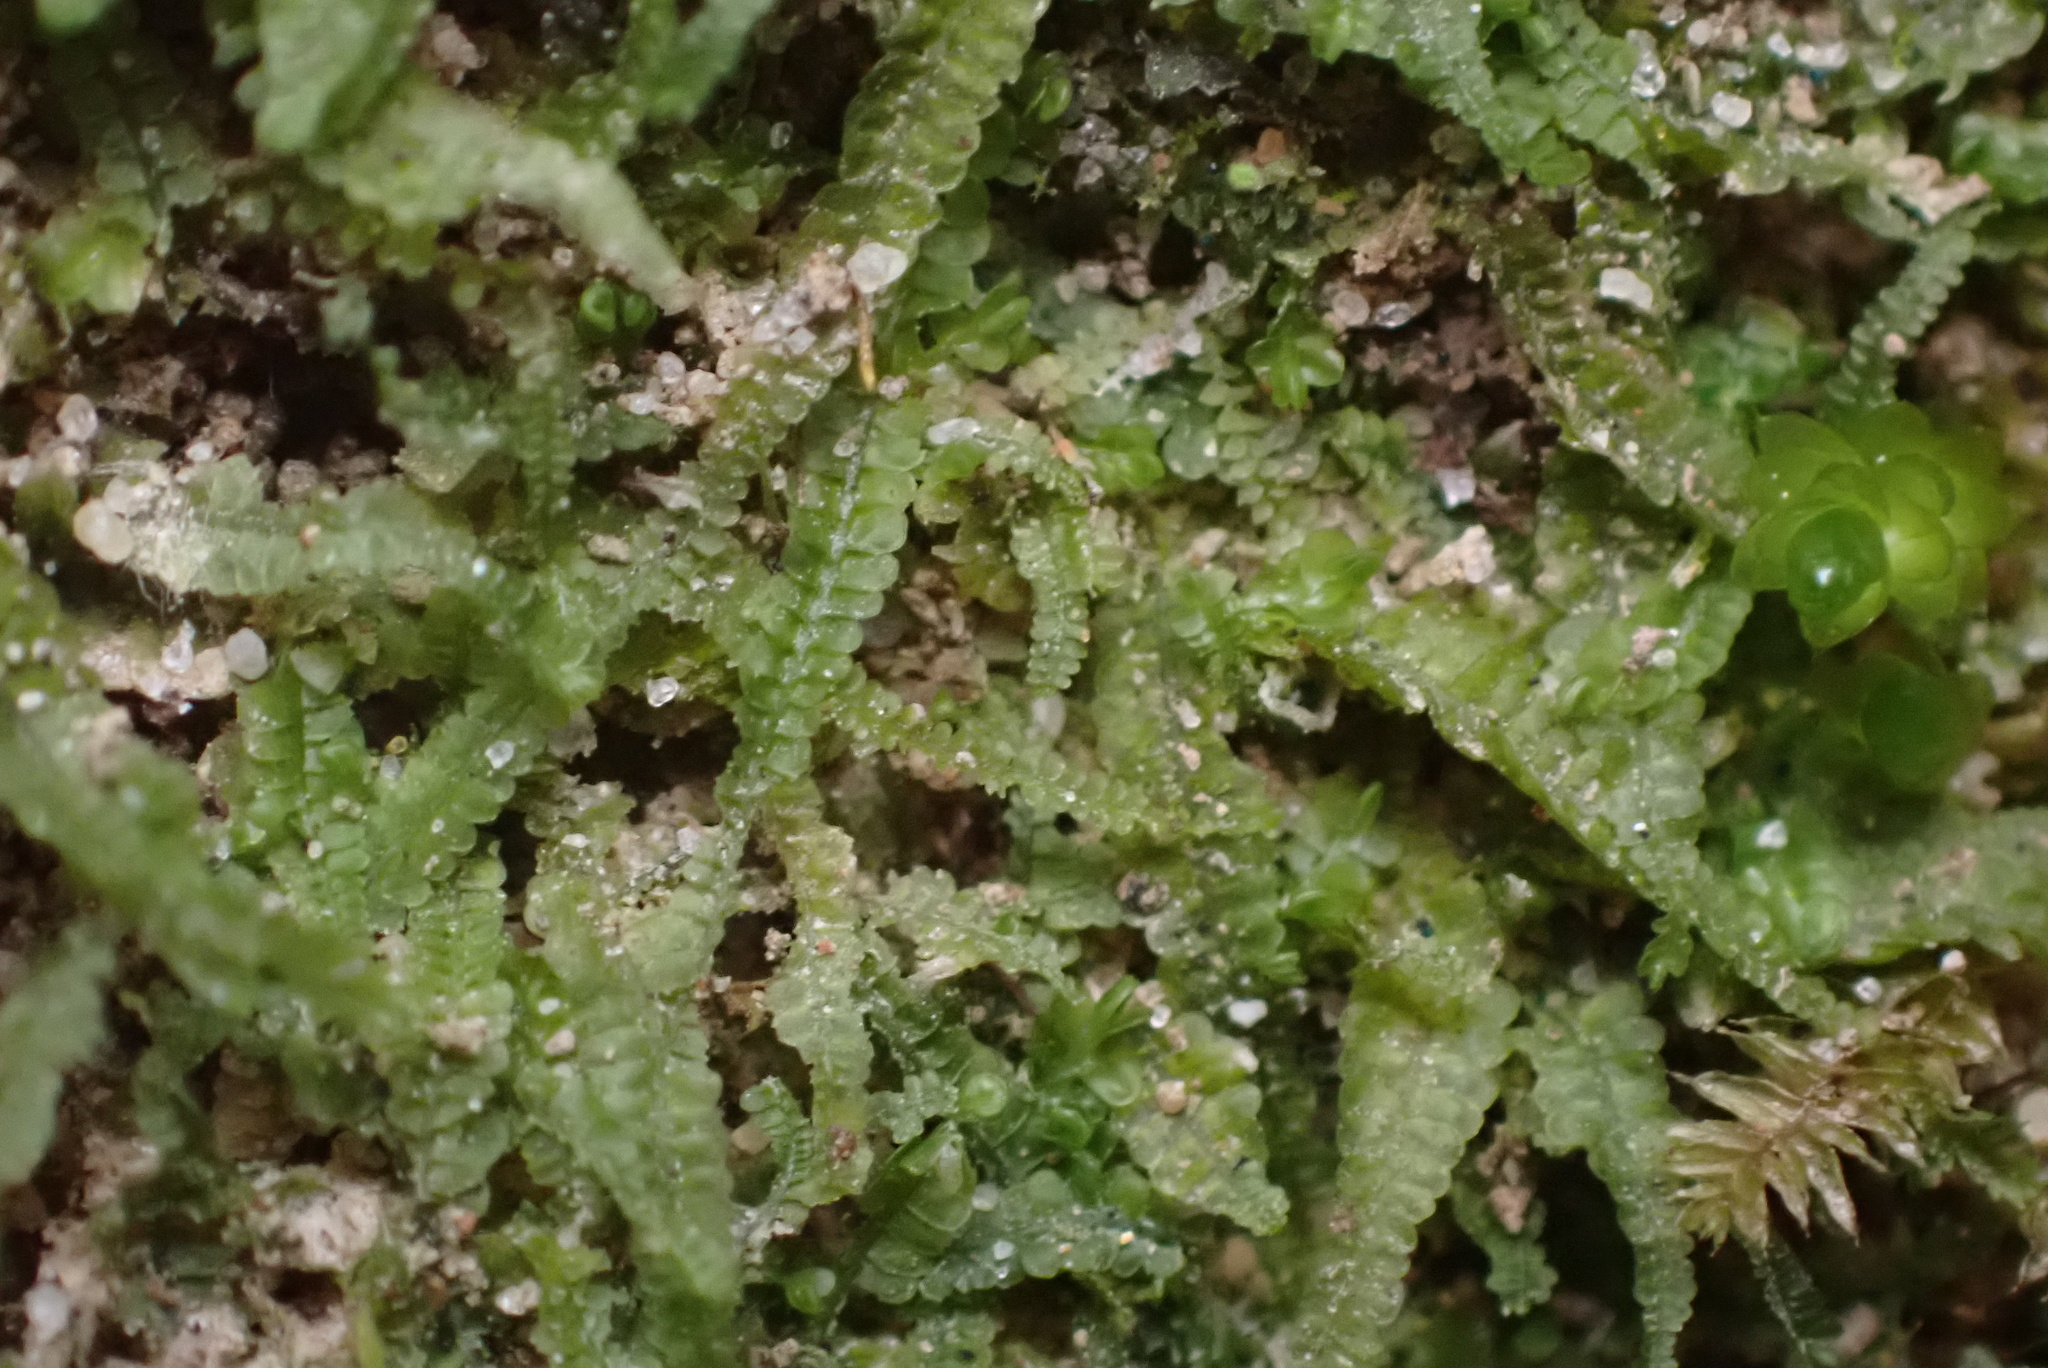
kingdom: Plantae
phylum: Marchantiophyta
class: Jungermanniopsida
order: Jungermanniales
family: Cephaloziaceae
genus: Odontoschisma
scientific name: Odontoschisma sphagni
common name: Bog-moss flapwort
